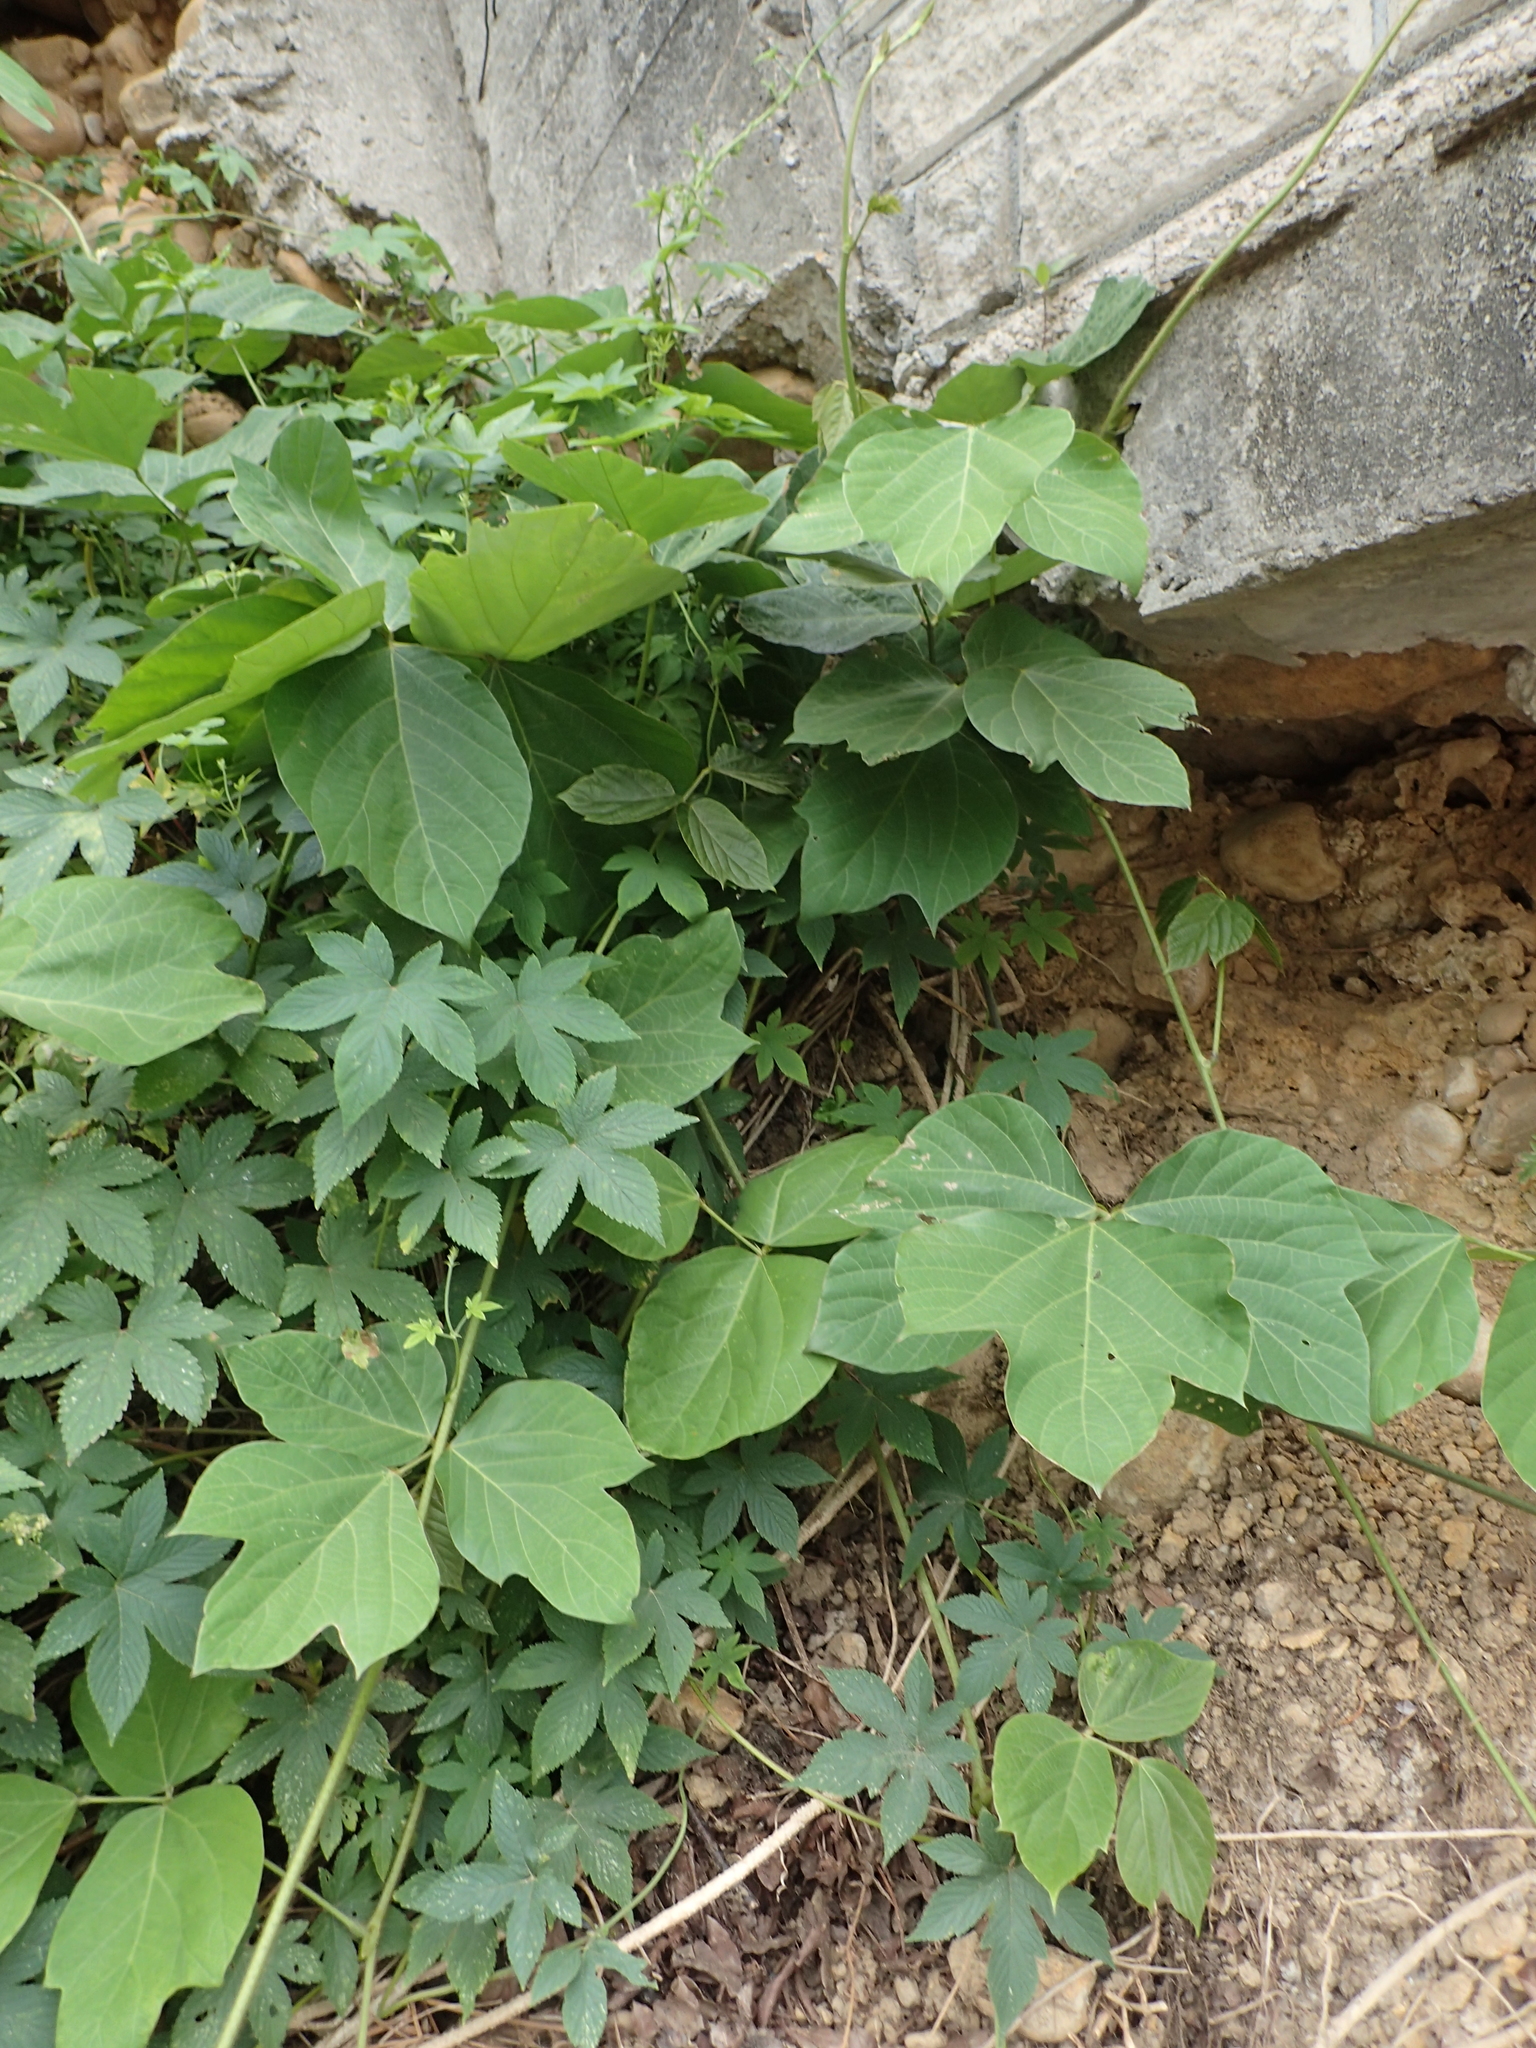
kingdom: Plantae
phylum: Tracheophyta
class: Magnoliopsida
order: Fabales
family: Fabaceae
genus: Pueraria
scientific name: Pueraria montana
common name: Kudzu
